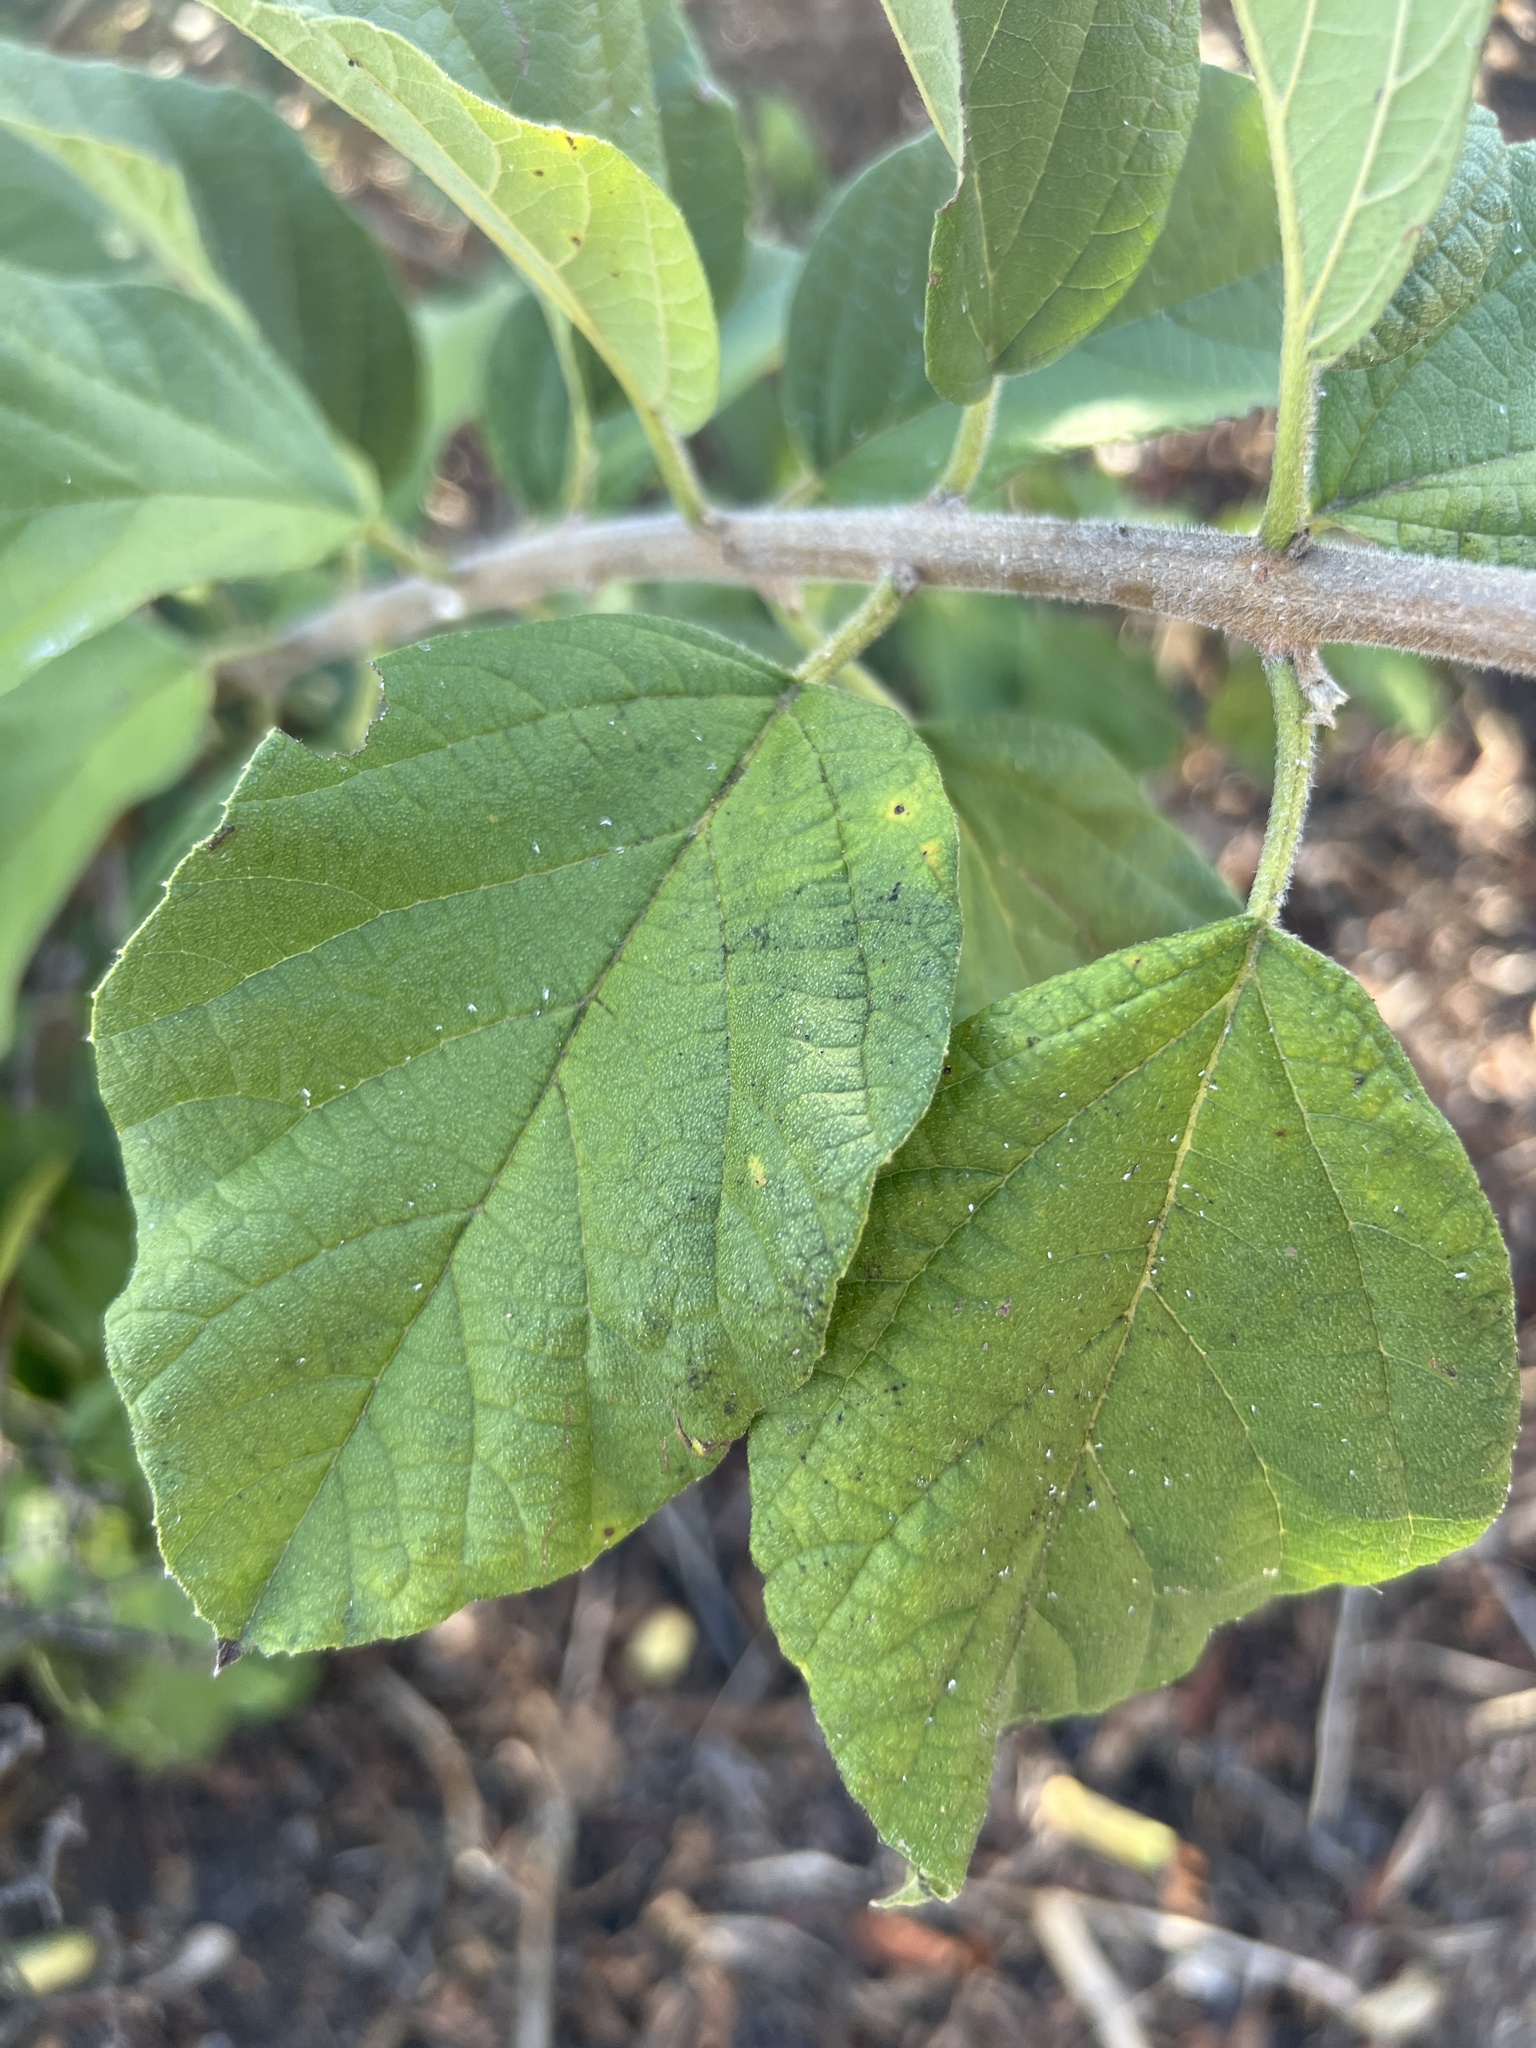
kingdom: Plantae
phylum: Tracheophyta
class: Magnoliopsida
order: Boraginales
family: Cordiaceae
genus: Cordia
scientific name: Cordia dentata
